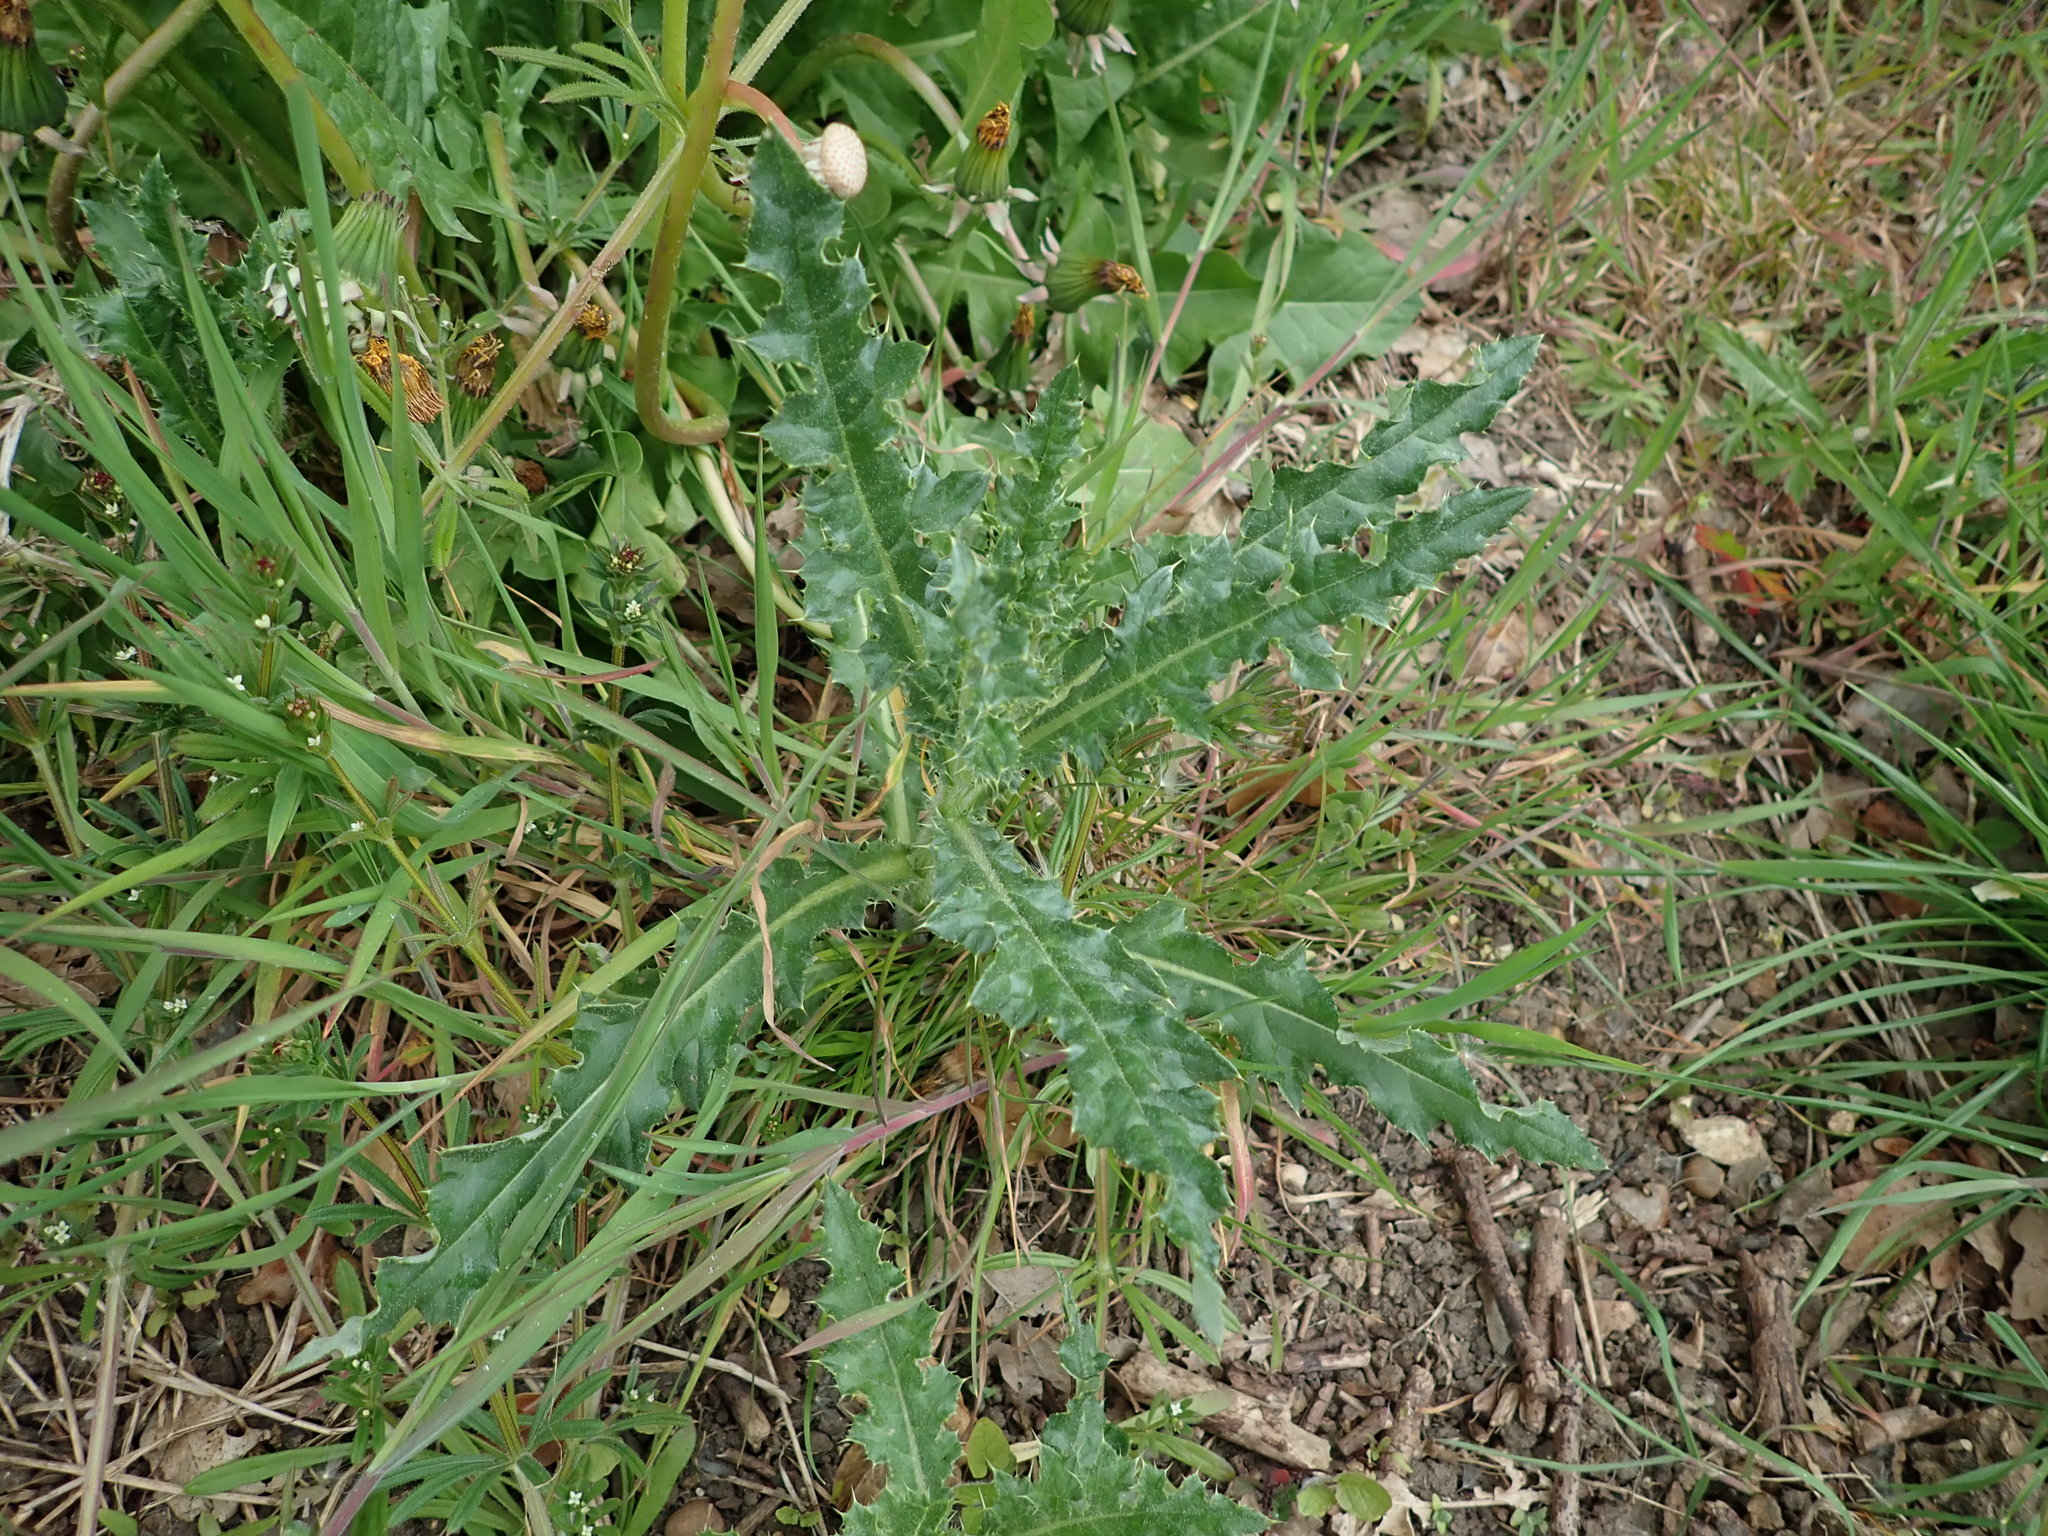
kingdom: Plantae
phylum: Tracheophyta
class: Magnoliopsida
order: Asterales
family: Asteraceae
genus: Cirsium
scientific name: Cirsium arvense
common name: Creeping thistle
